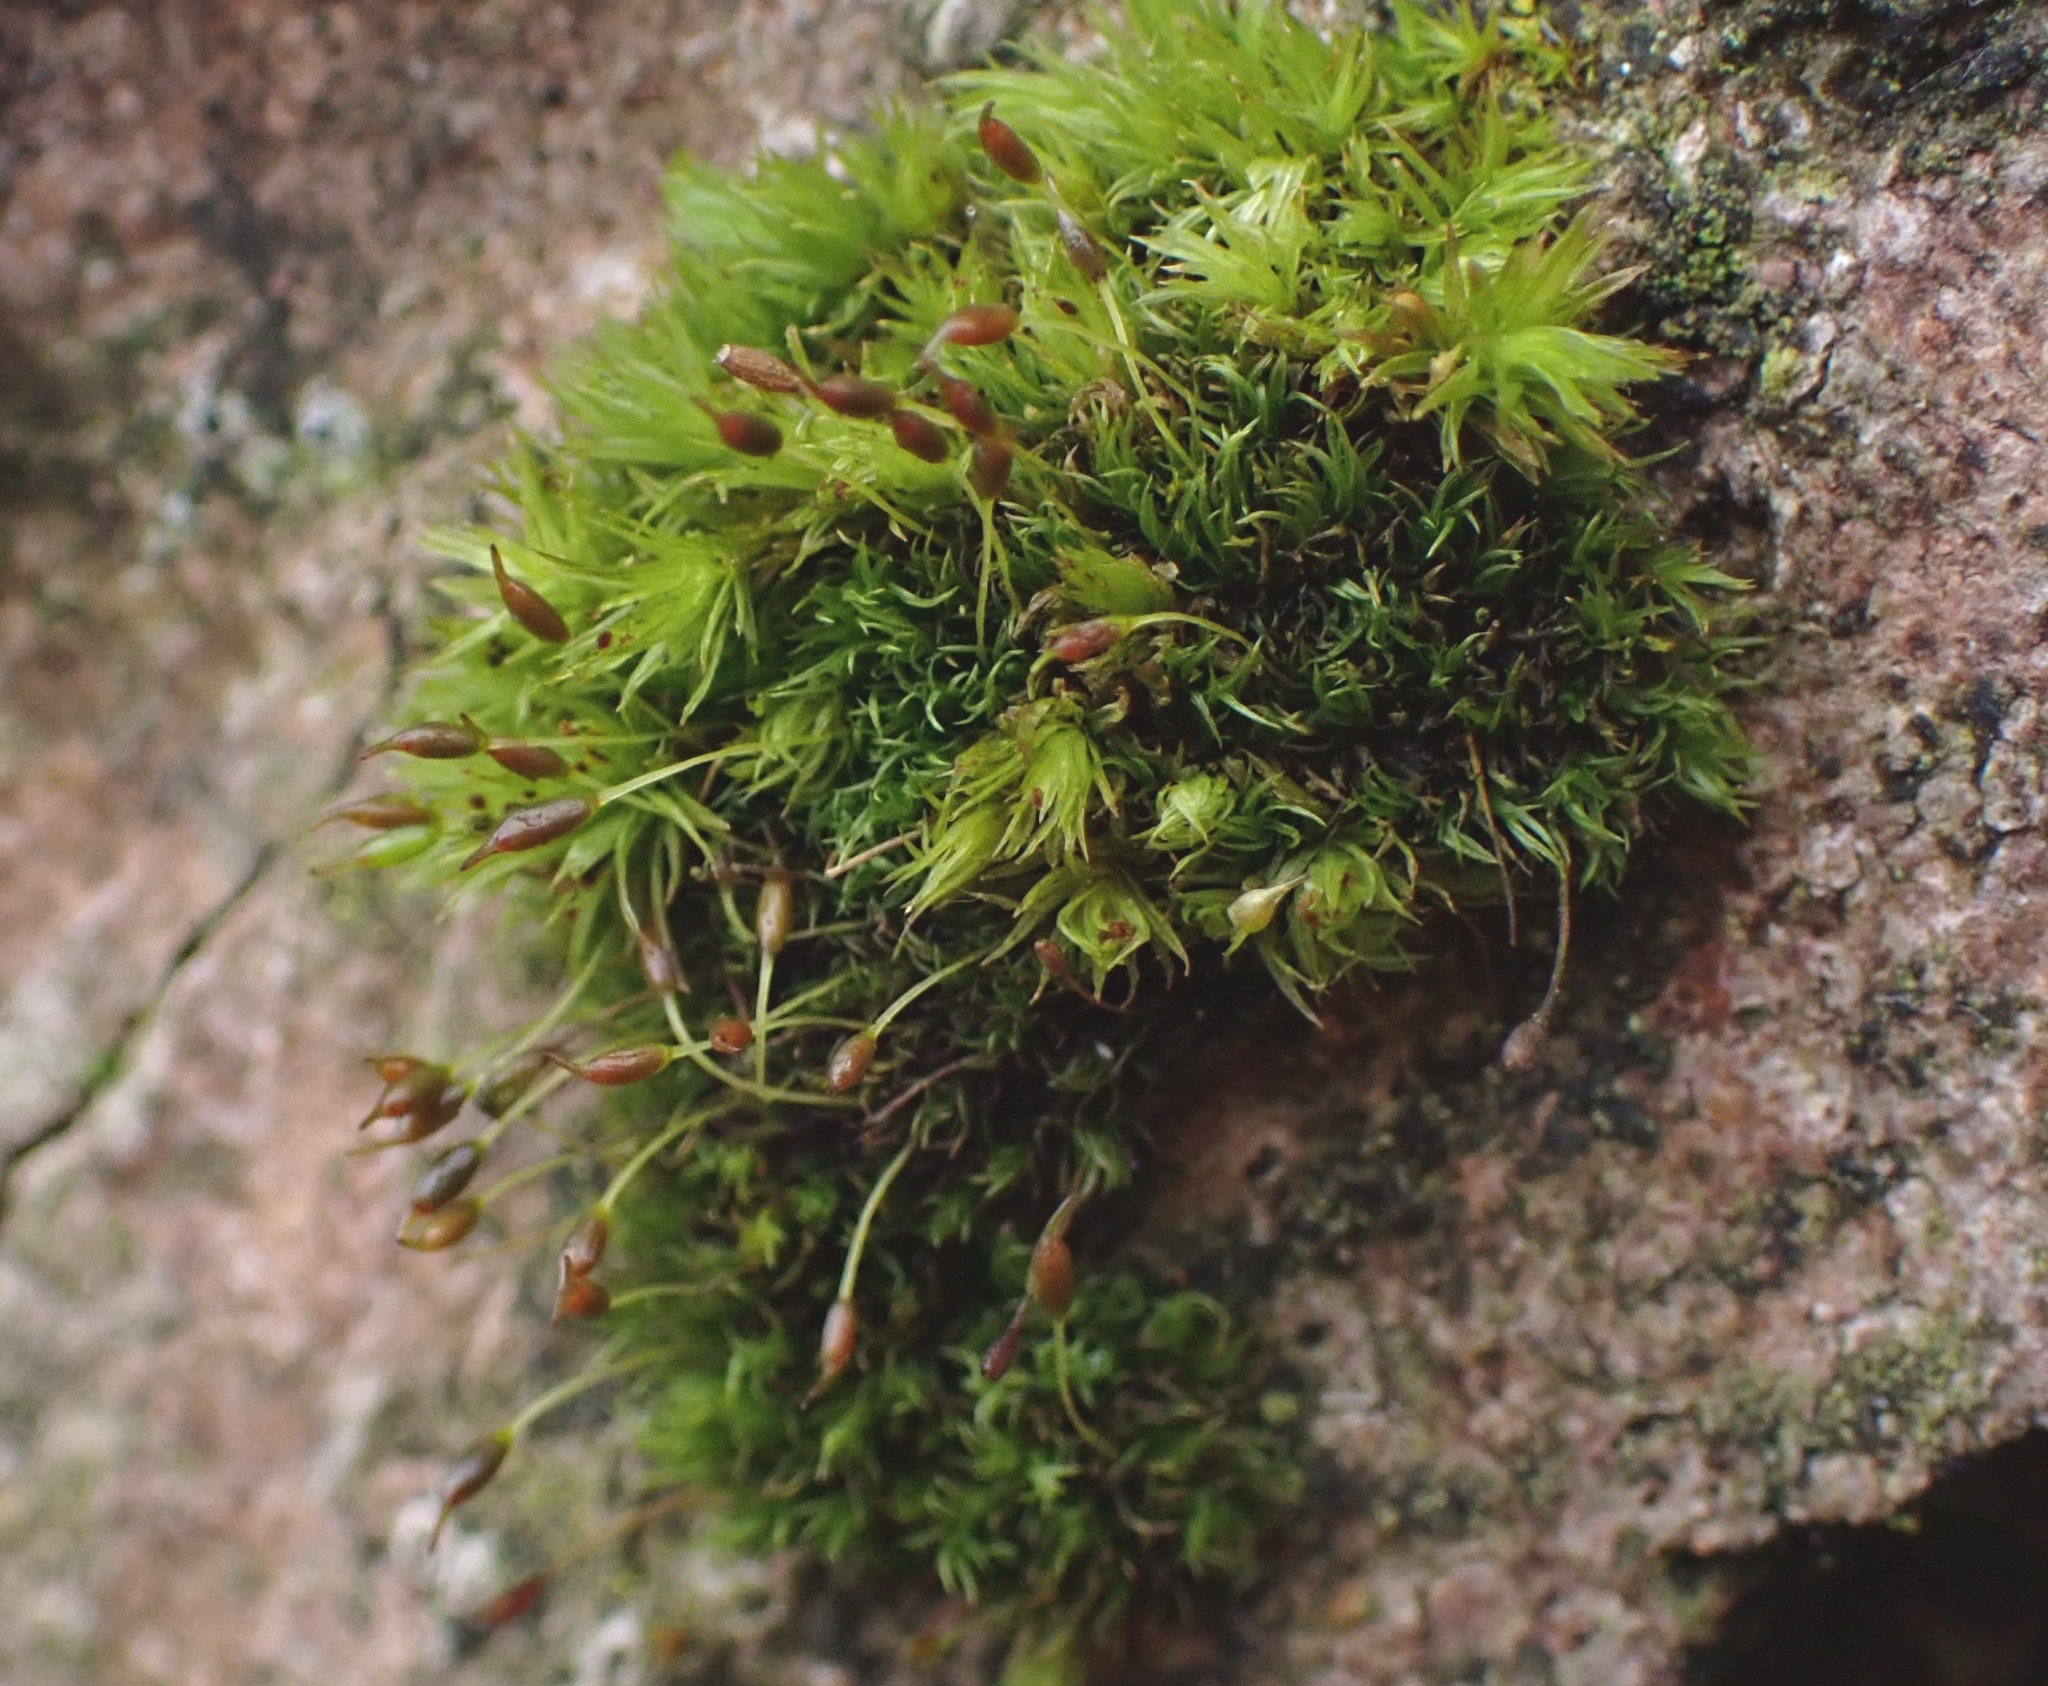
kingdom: Plantae
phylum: Bryophyta
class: Bryopsida
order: Dicranales
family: Rhabdoweisiaceae
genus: Dicranoweisia
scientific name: Dicranoweisia cirrata
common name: Common pincushion
